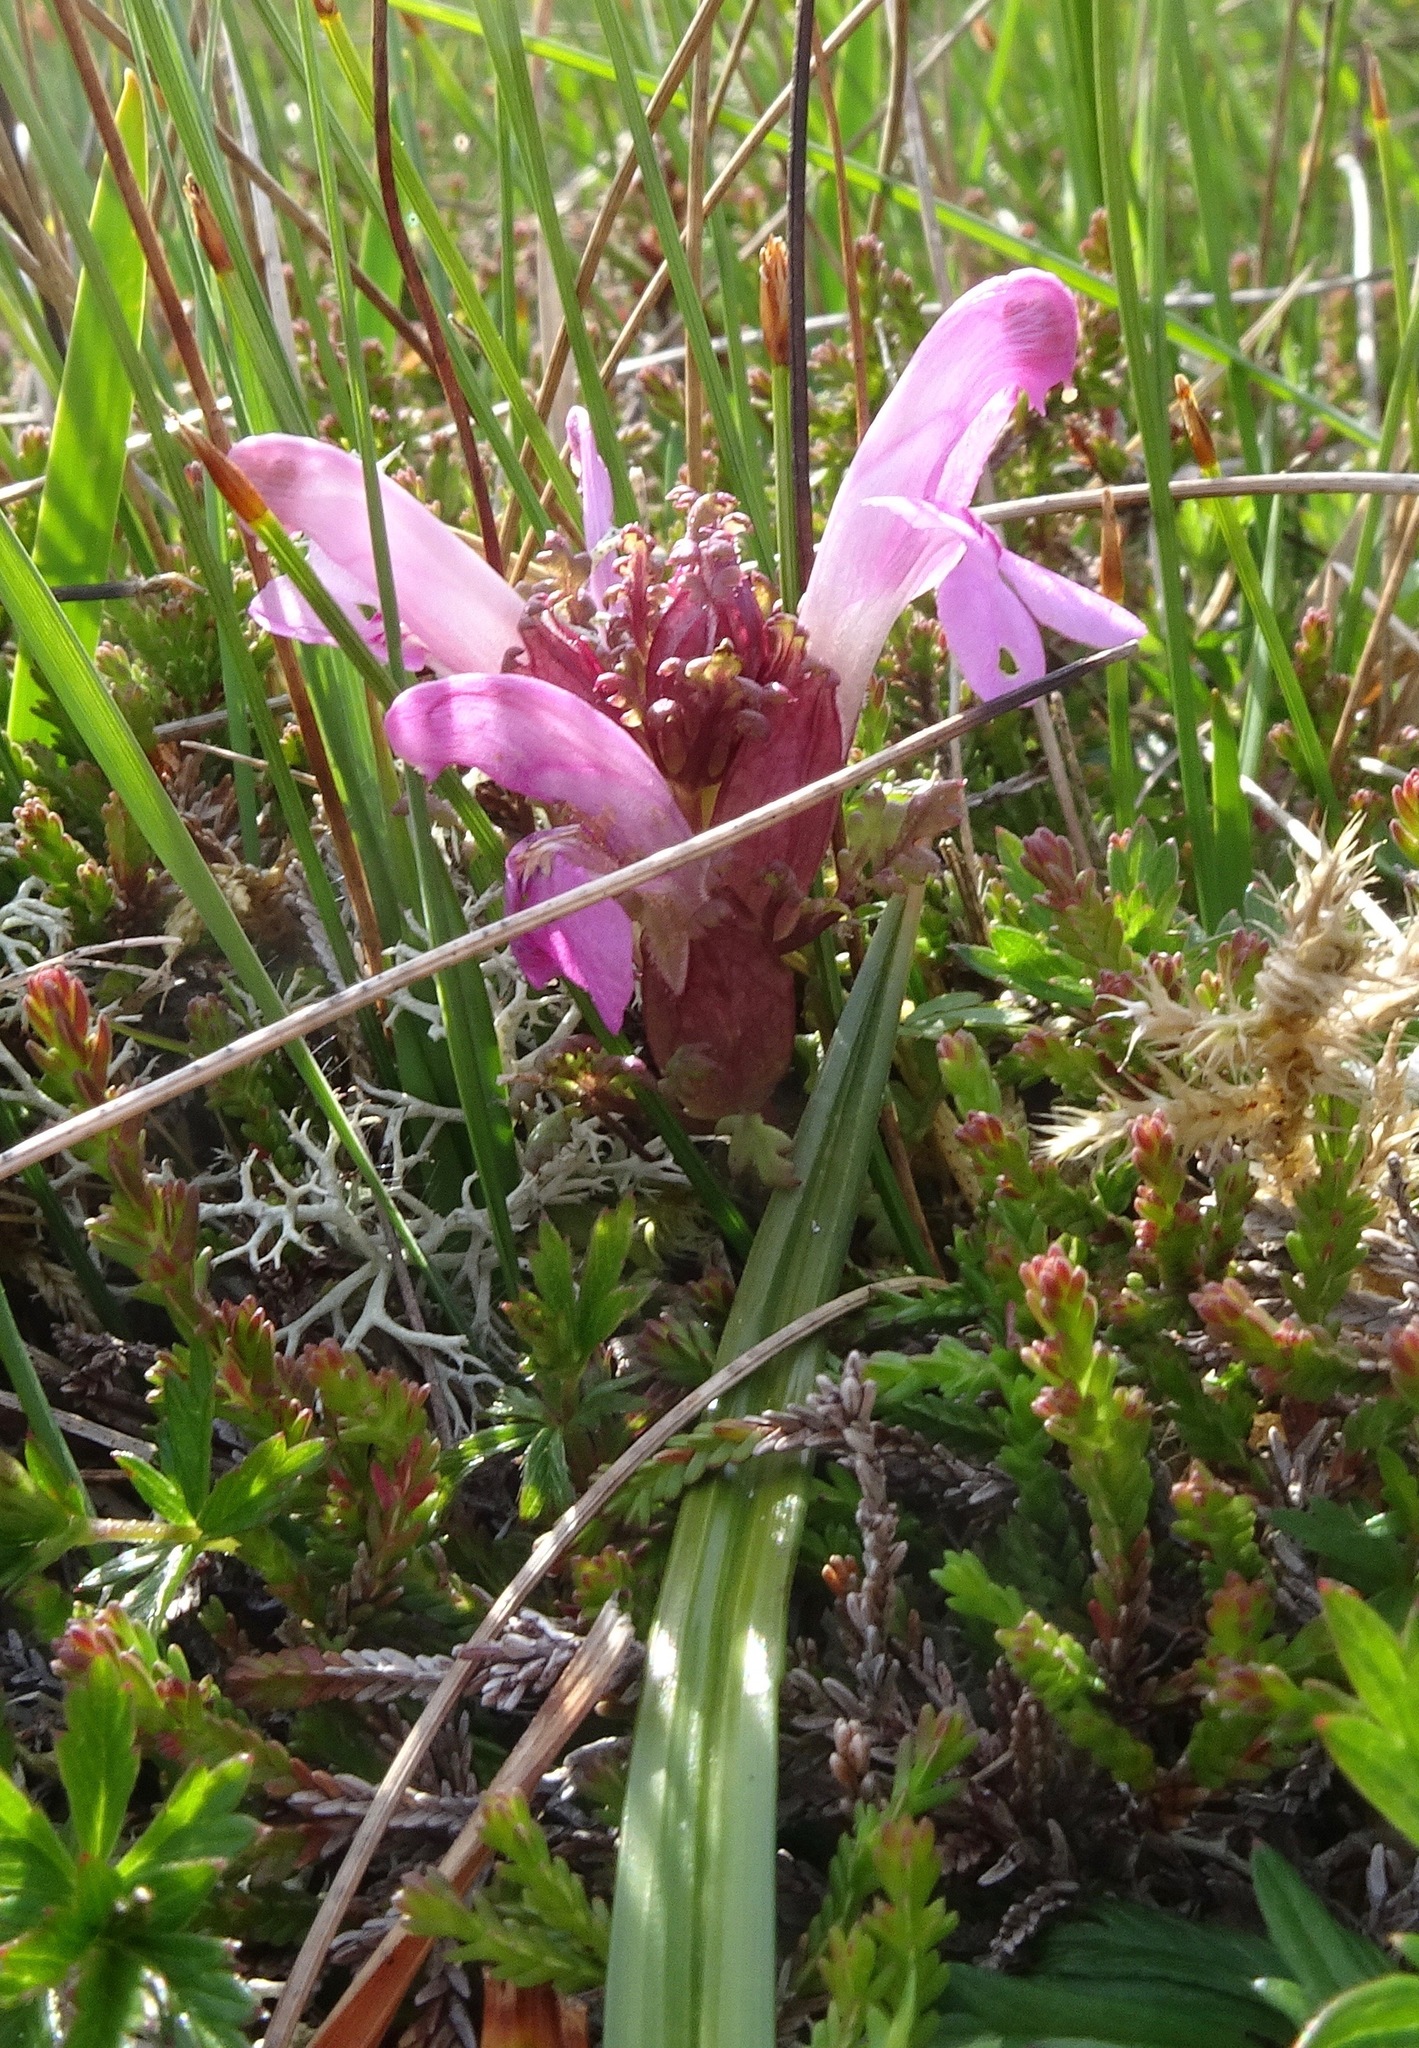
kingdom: Plantae
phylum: Tracheophyta
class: Magnoliopsida
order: Lamiales
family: Orobanchaceae
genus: Pedicularis
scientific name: Pedicularis sylvatica
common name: Lousewort
